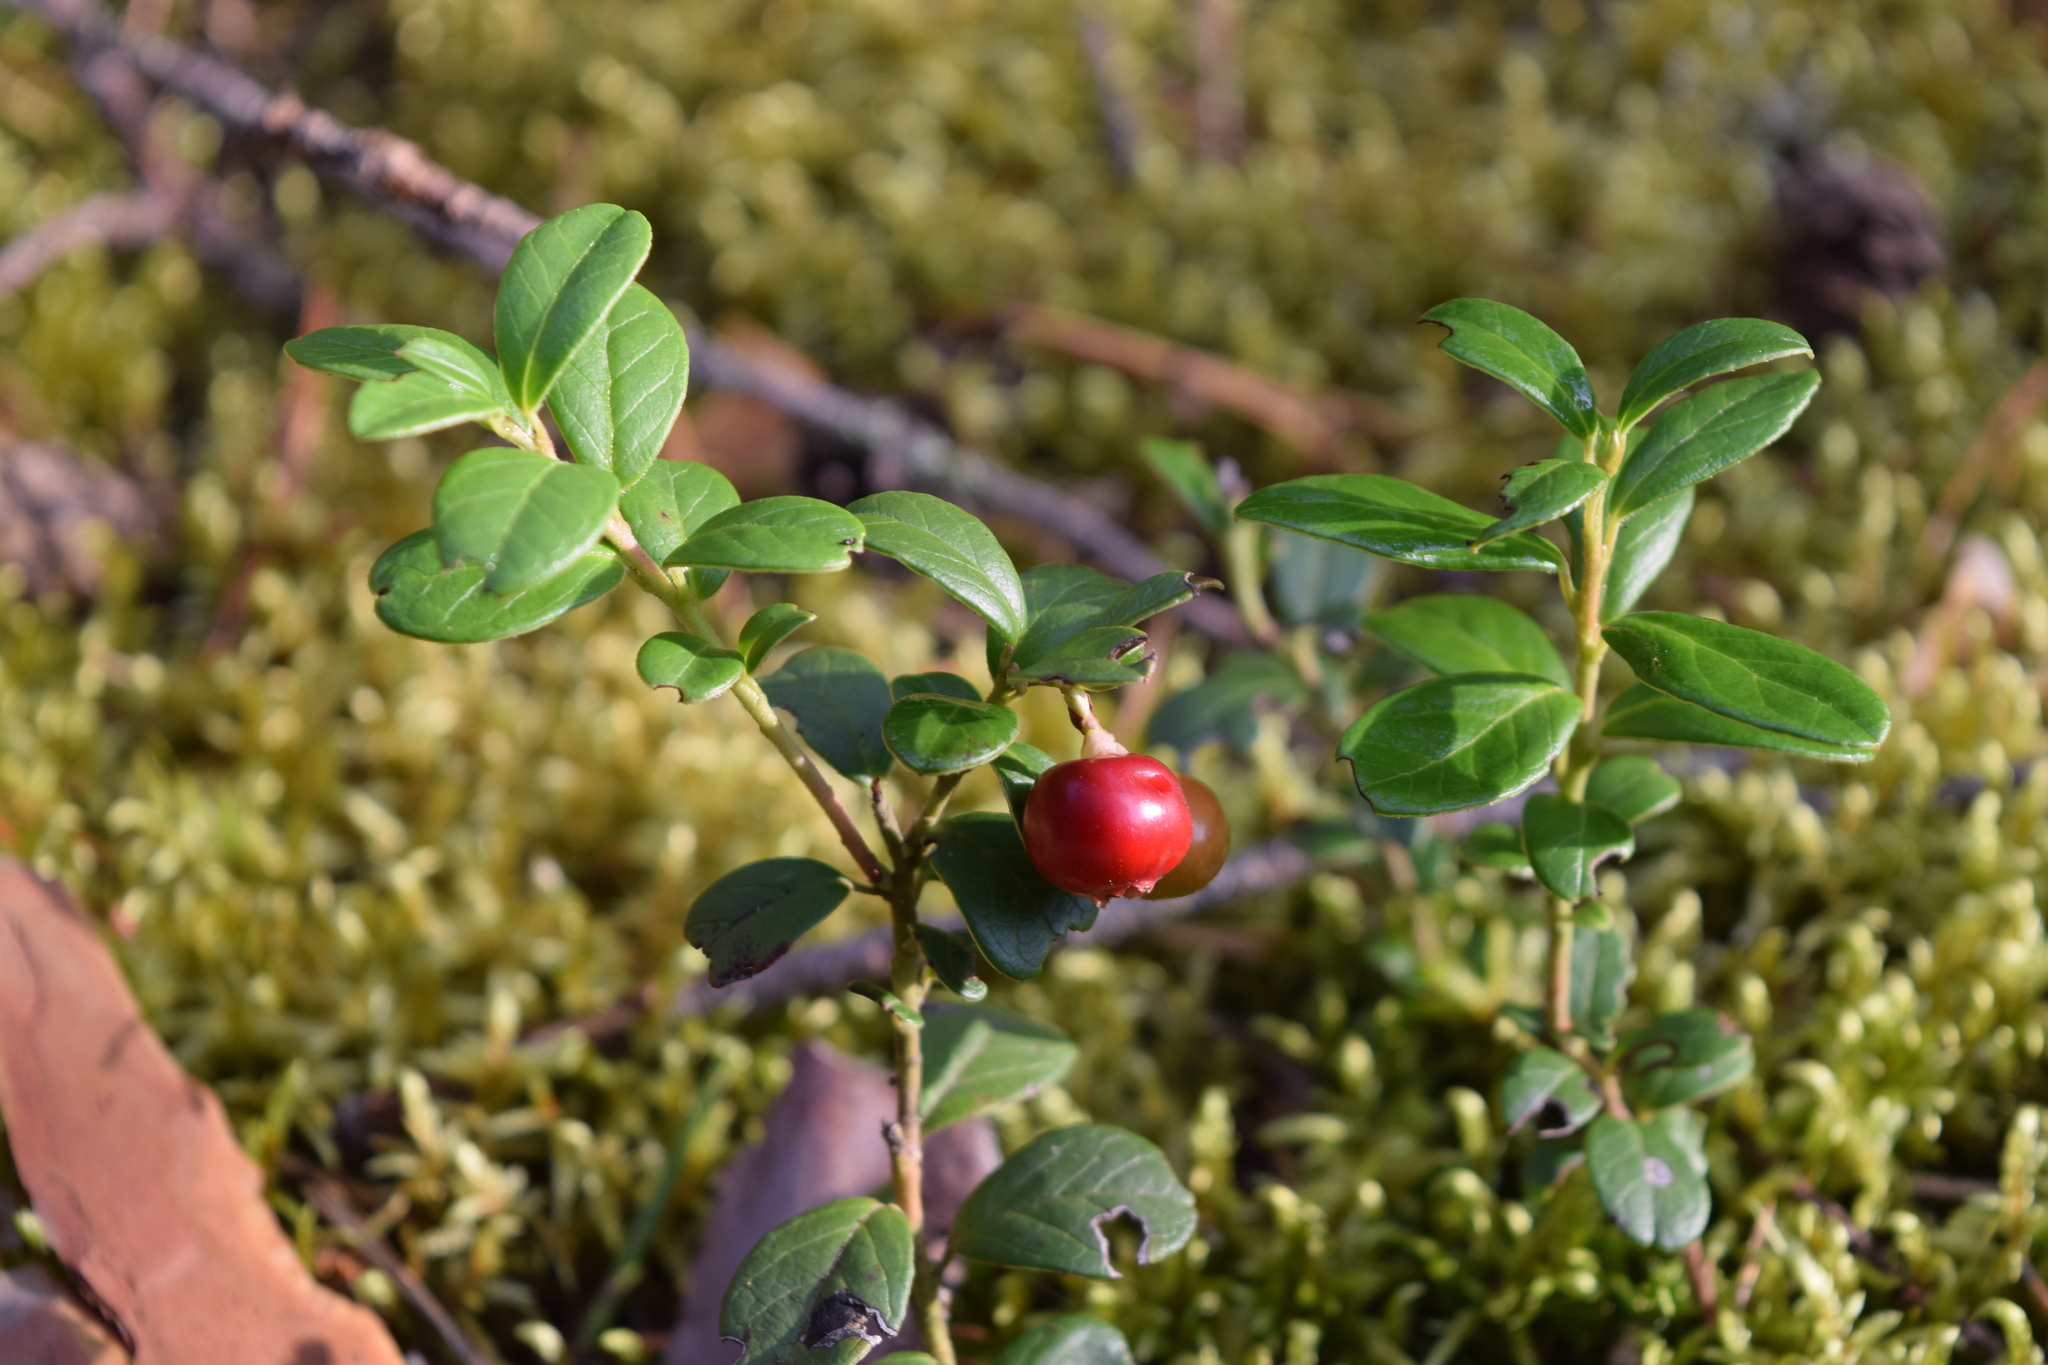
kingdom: Plantae
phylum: Tracheophyta
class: Magnoliopsida
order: Ericales
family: Ericaceae
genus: Vaccinium
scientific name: Vaccinium vitis-idaea
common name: Cowberry
